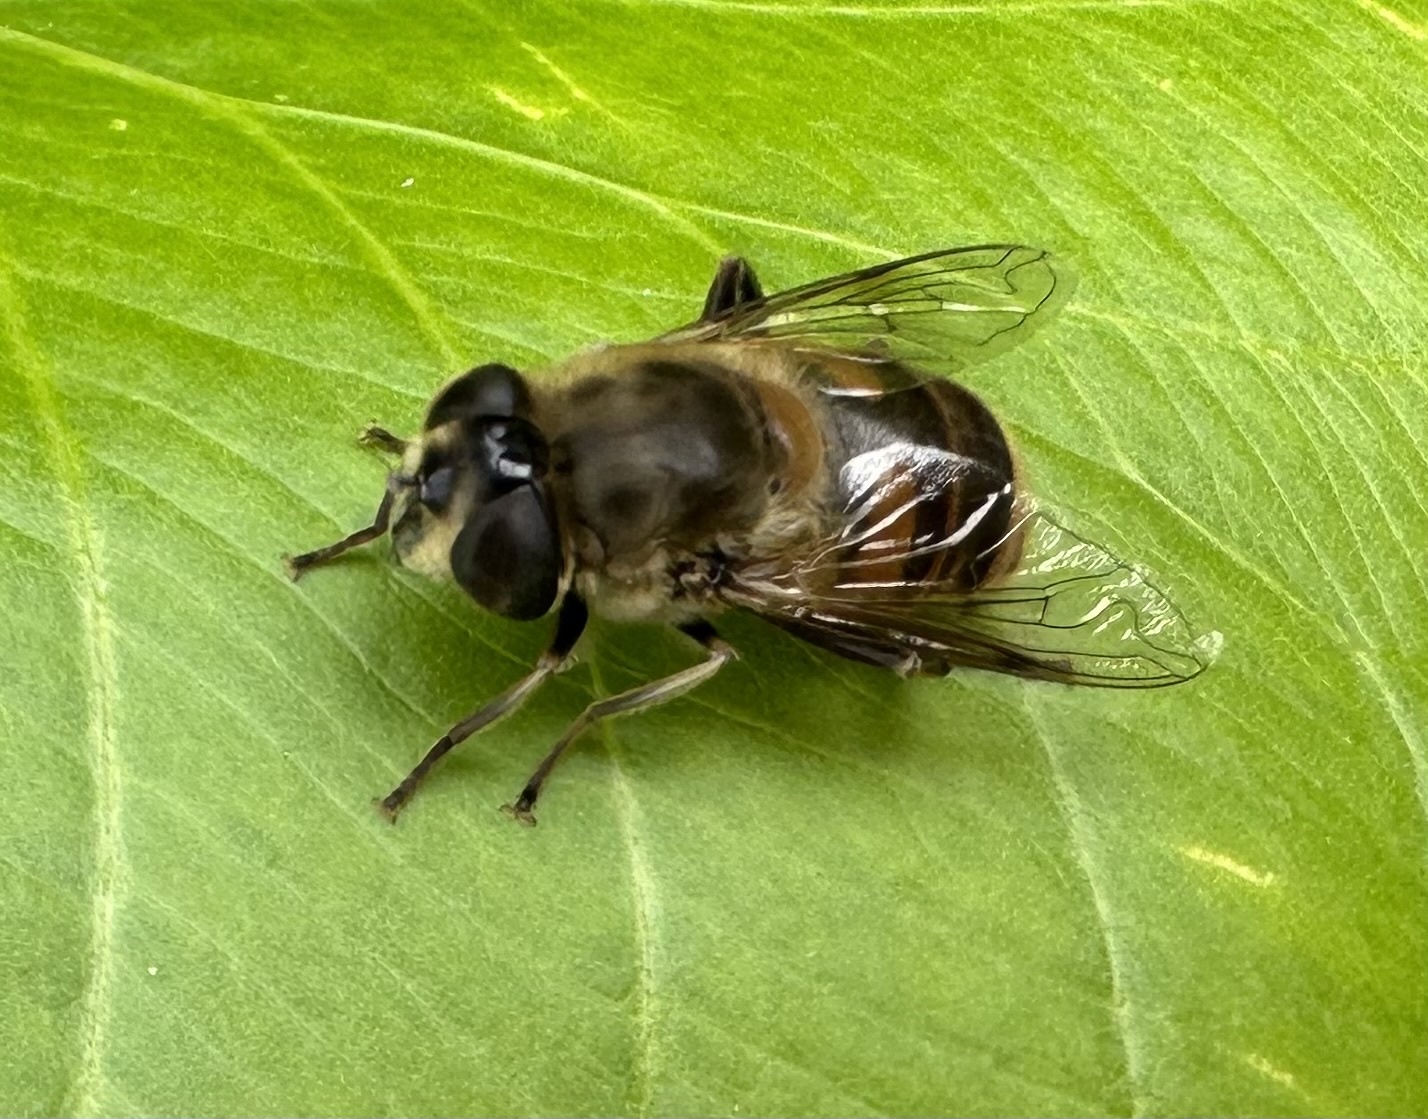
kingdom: Animalia
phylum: Arthropoda
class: Insecta
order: Diptera
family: Syrphidae
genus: Eristalis
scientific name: Eristalis tenax
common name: Drone fly
